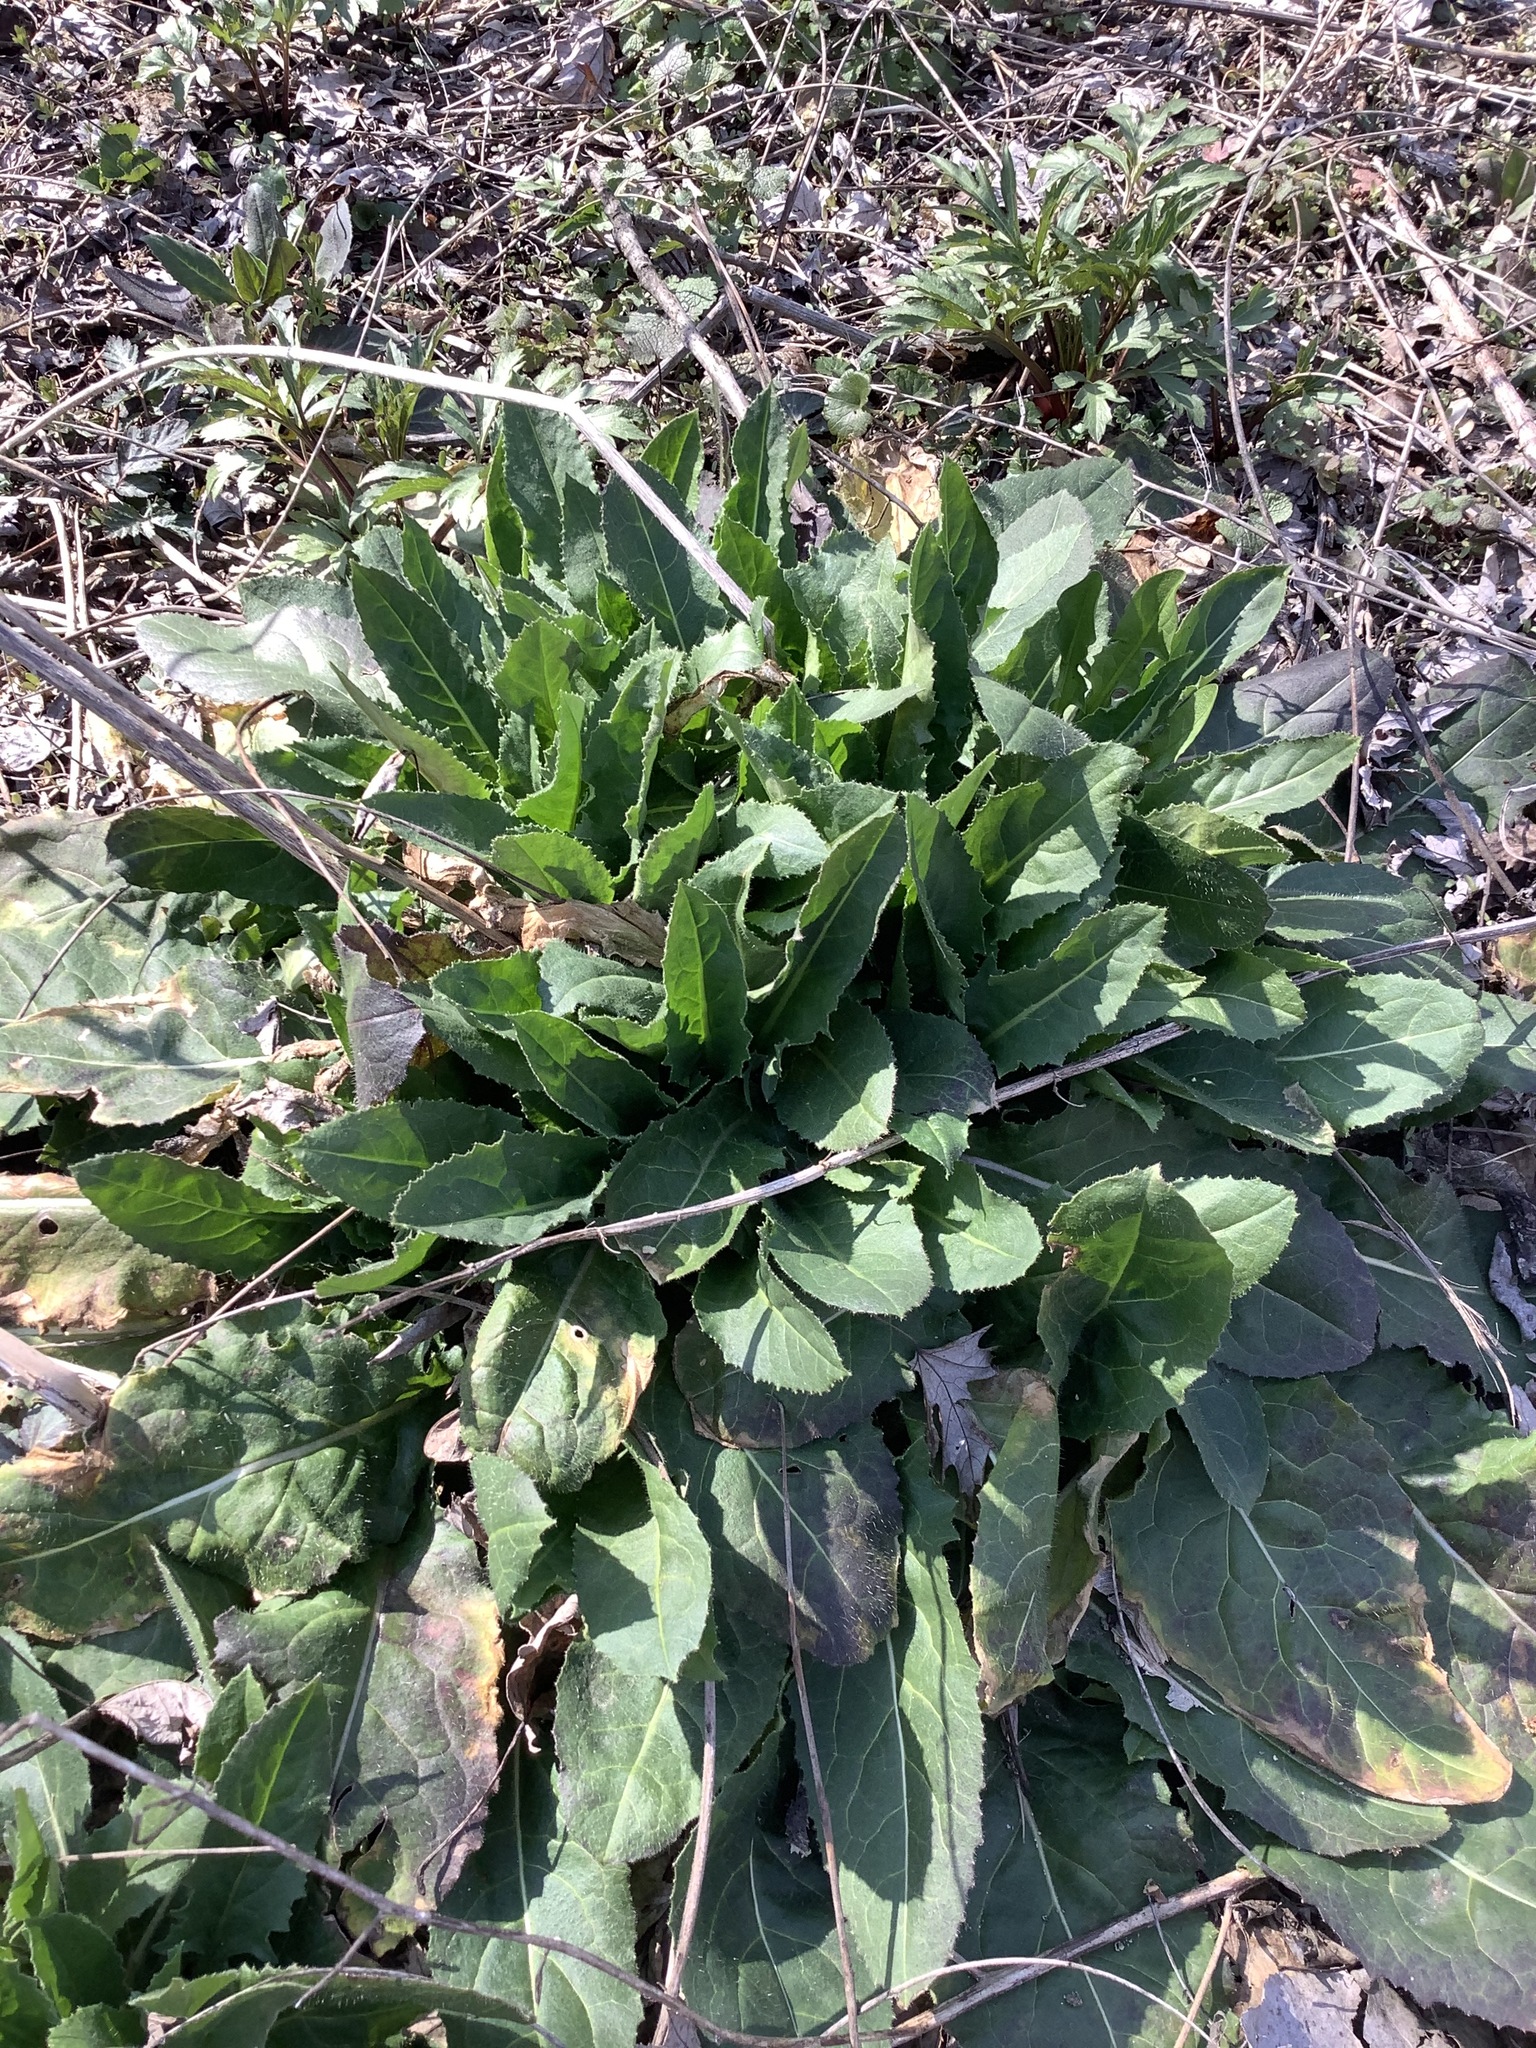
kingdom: Plantae
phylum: Tracheophyta
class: Magnoliopsida
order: Brassicales
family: Brassicaceae
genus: Hesperis
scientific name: Hesperis matronalis
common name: Dame's-violet
